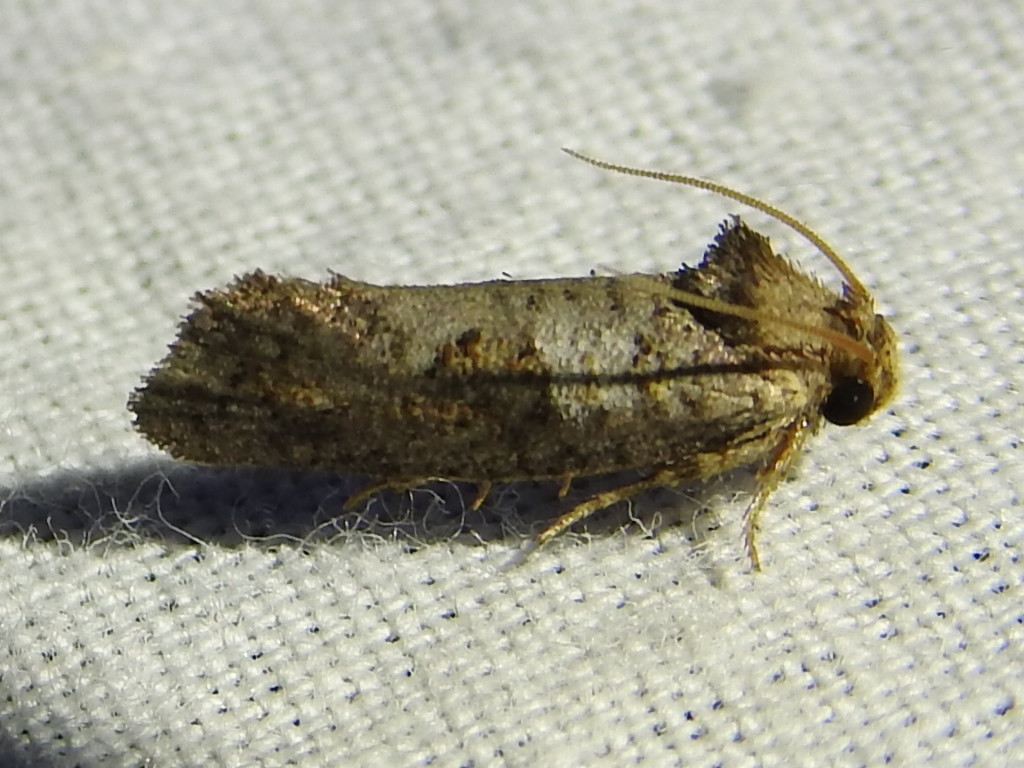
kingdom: Animalia
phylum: Arthropoda
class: Insecta
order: Lepidoptera
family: Tineidae
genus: Acrolophus
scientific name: Acrolophus piger
